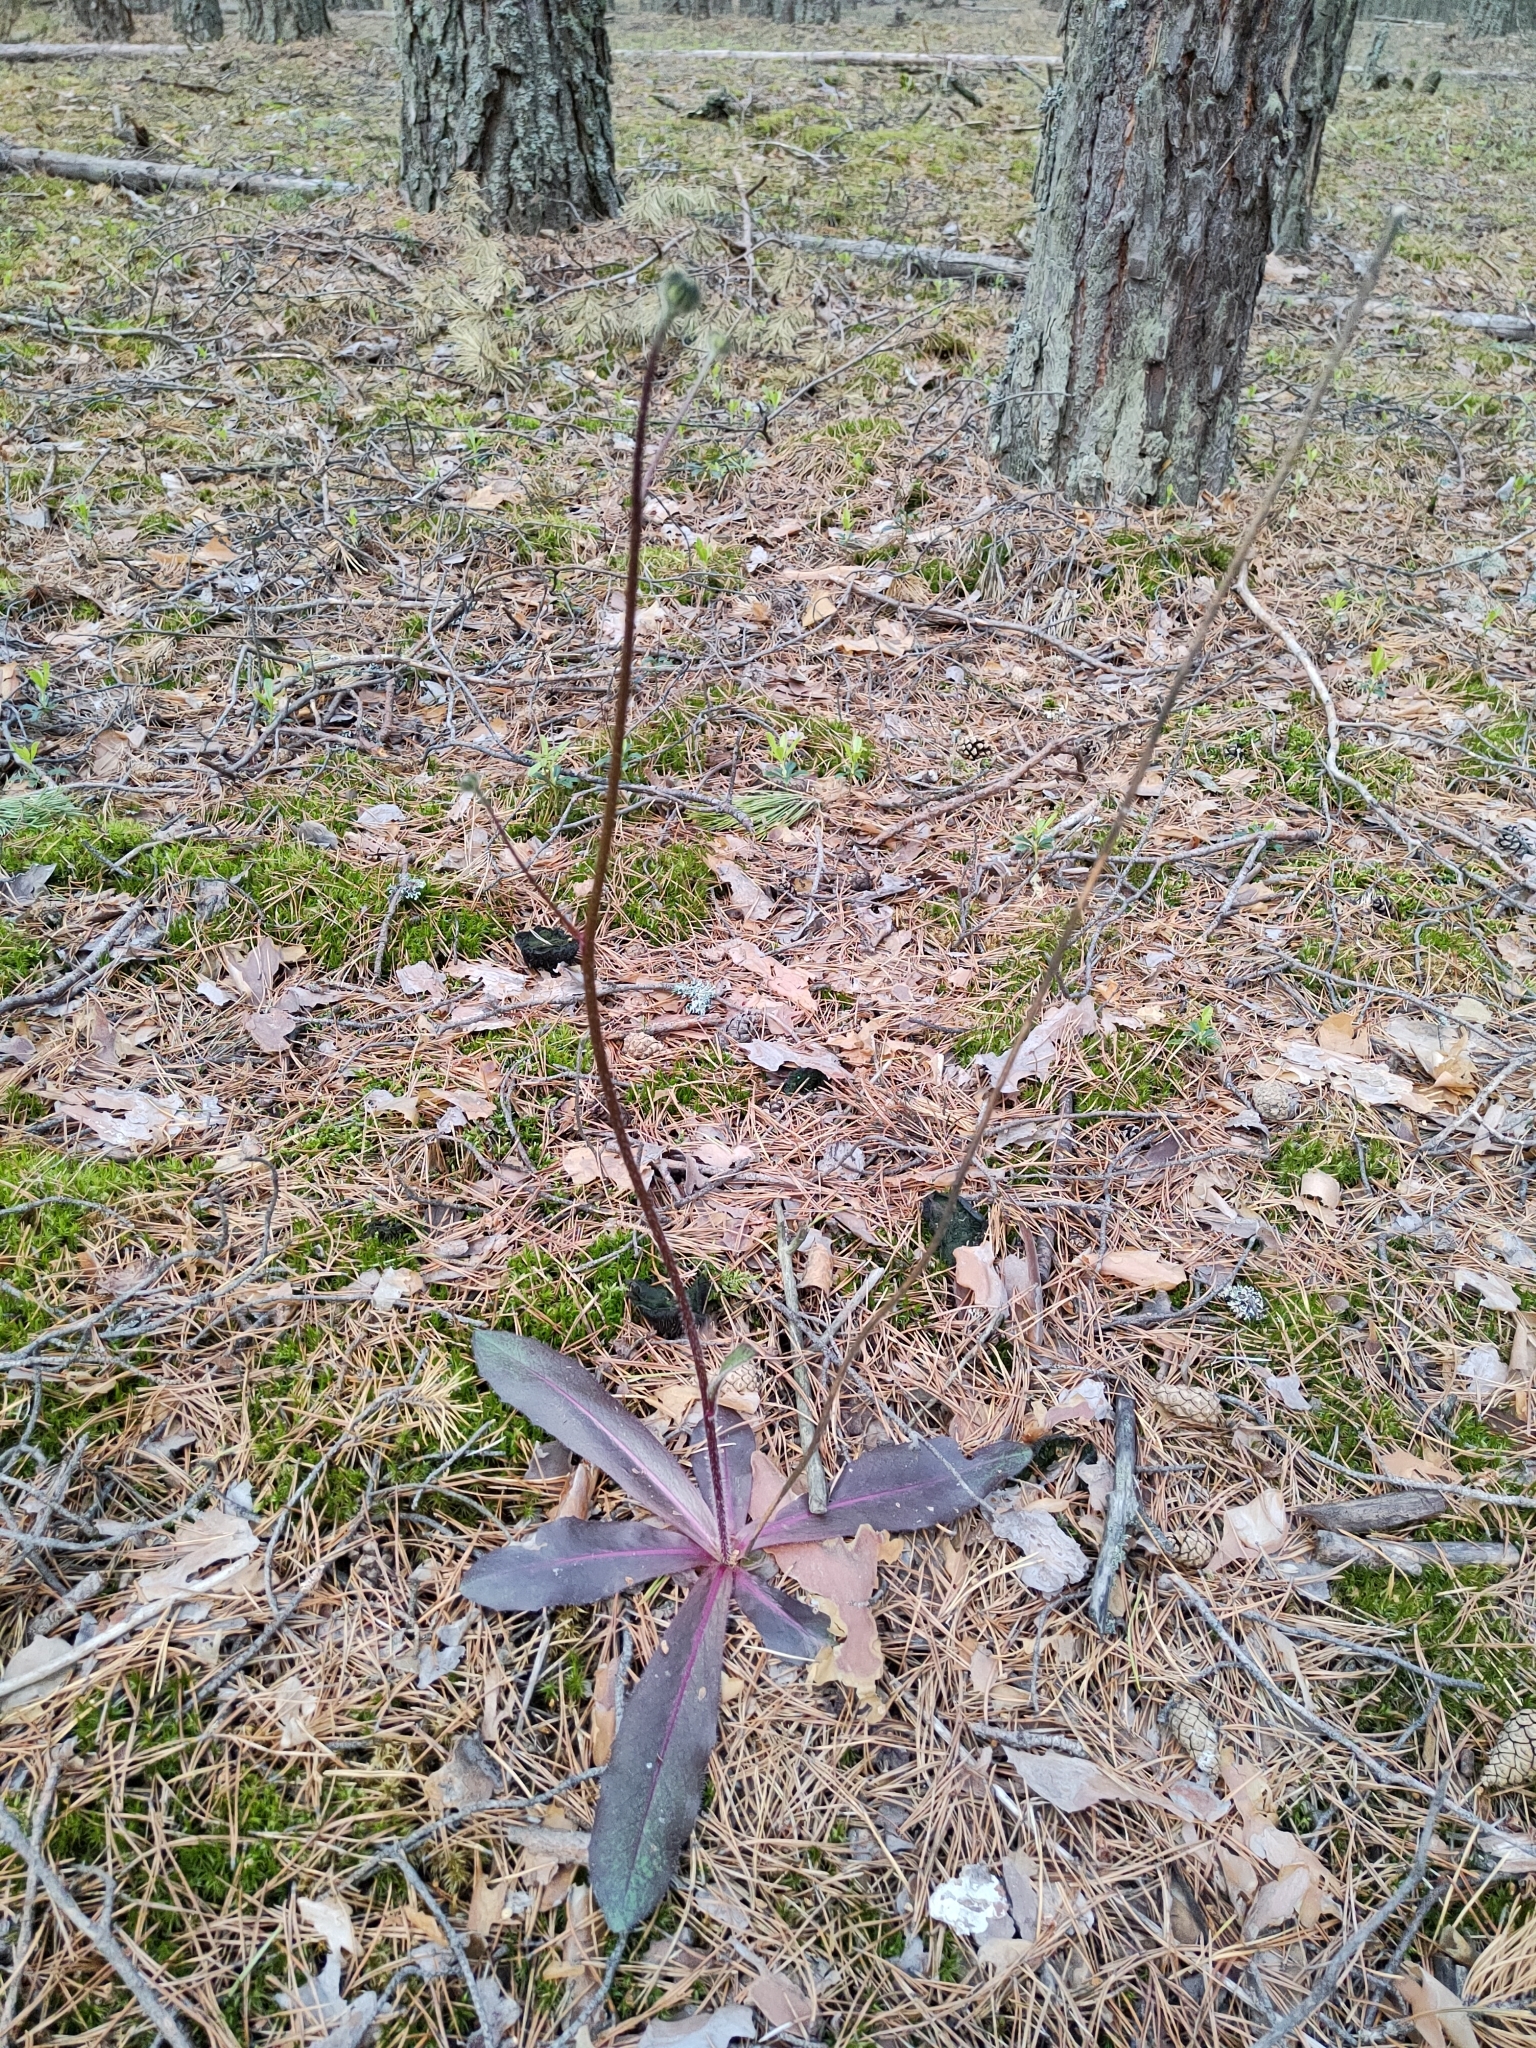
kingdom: Plantae
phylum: Tracheophyta
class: Magnoliopsida
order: Asterales
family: Asteraceae
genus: Trommsdorffia
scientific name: Trommsdorffia maculata
